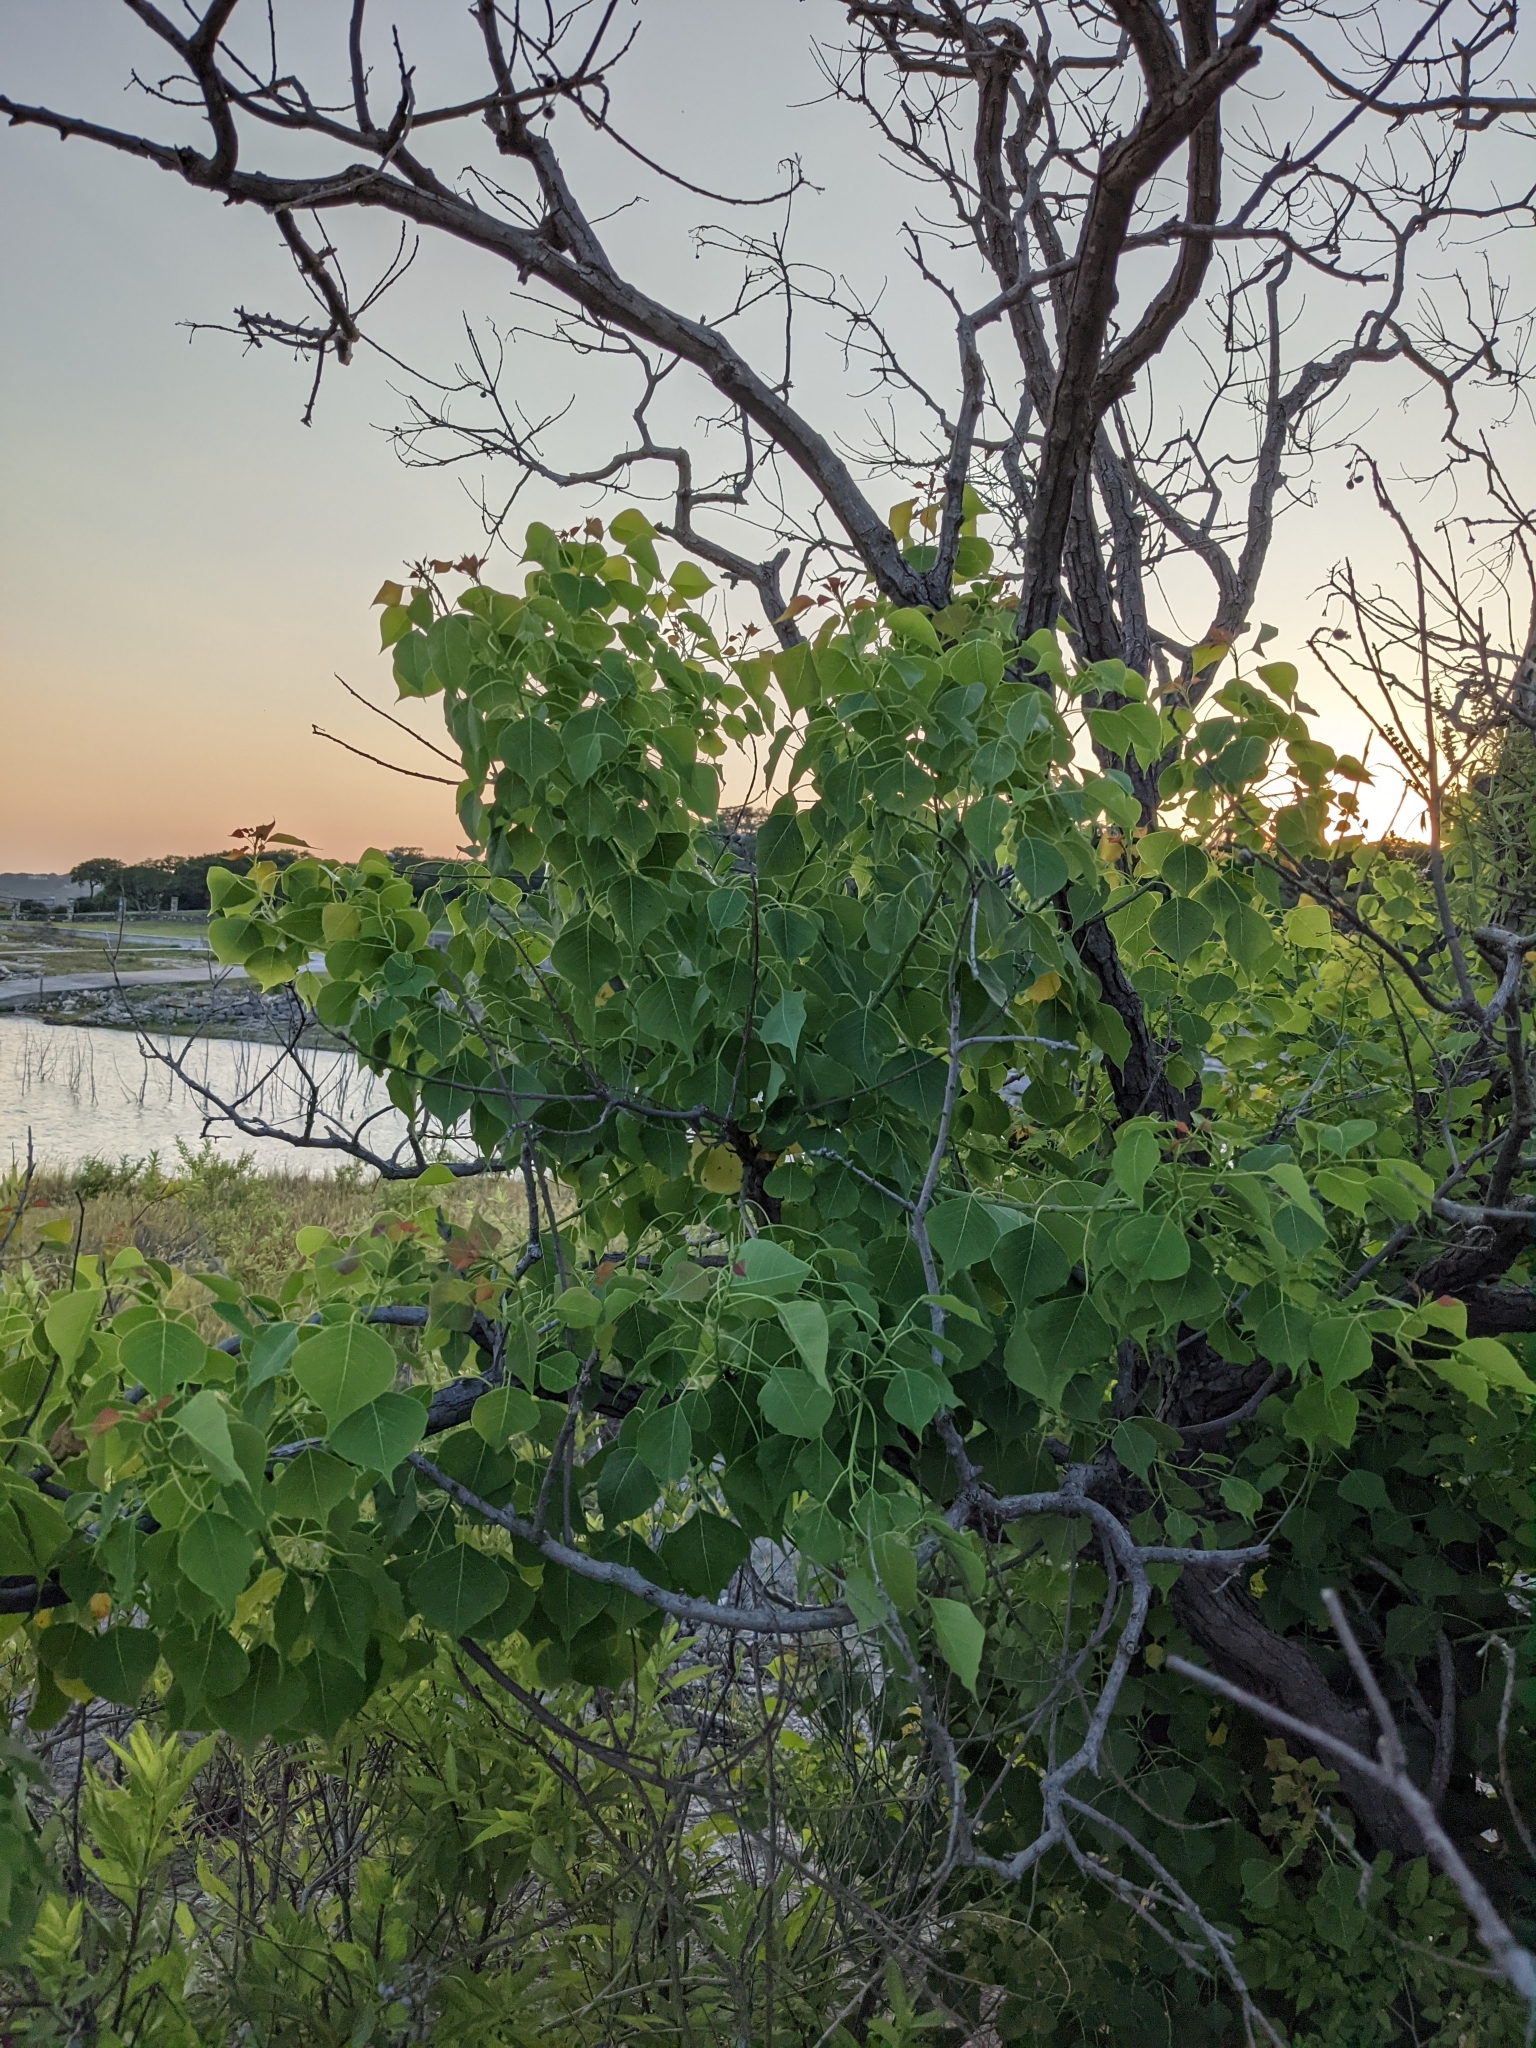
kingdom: Plantae
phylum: Tracheophyta
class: Magnoliopsida
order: Malpighiales
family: Euphorbiaceae
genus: Triadica
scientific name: Triadica sebifera
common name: Chinese tallow
